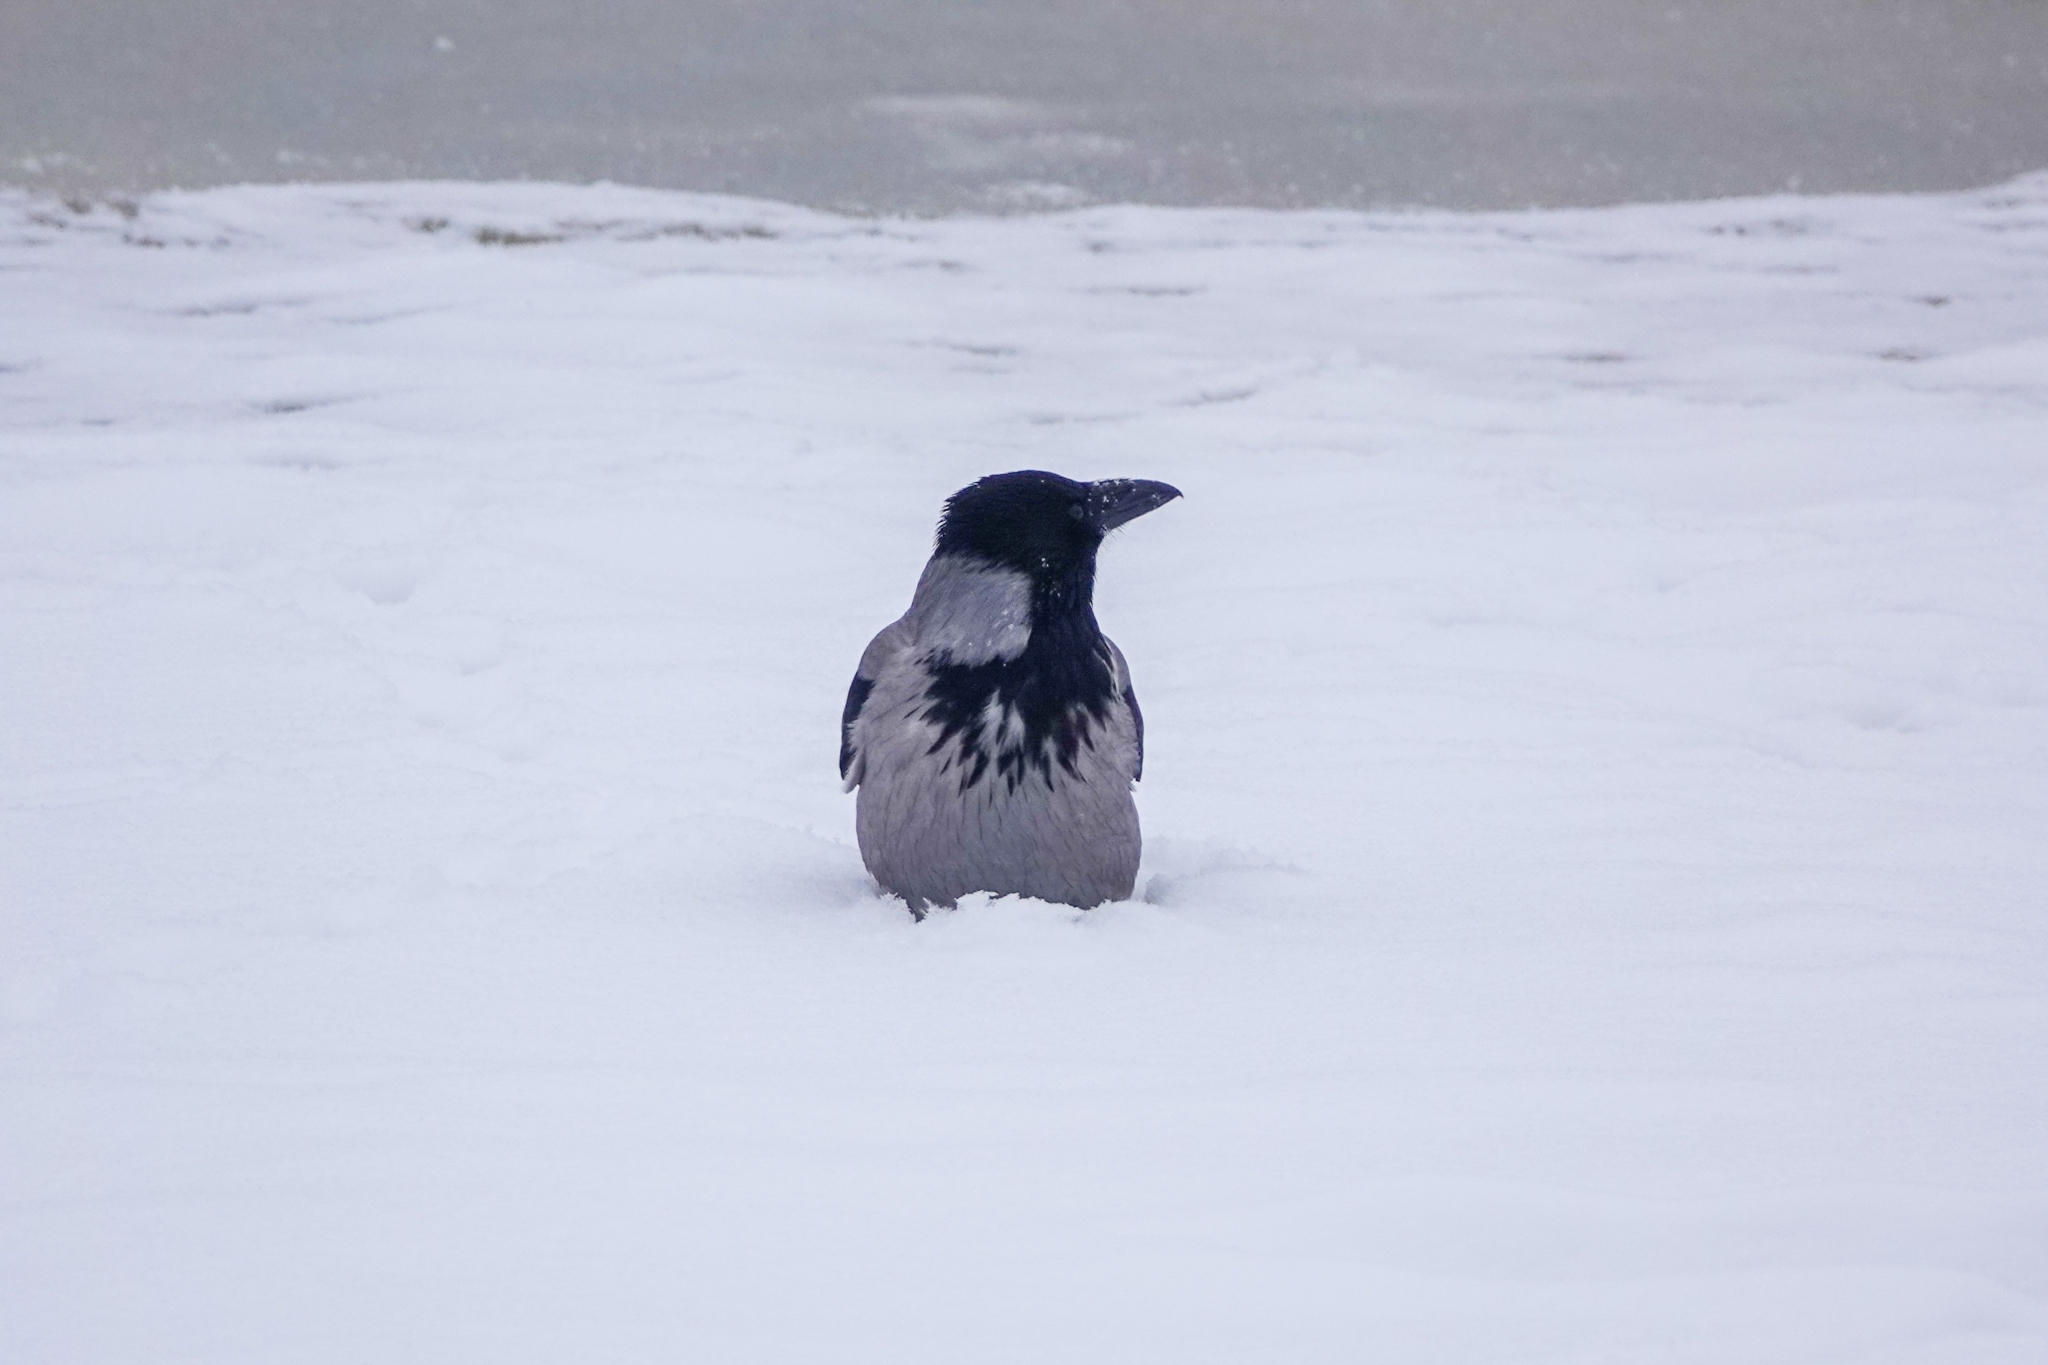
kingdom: Animalia
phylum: Chordata
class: Aves
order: Passeriformes
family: Corvidae
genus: Corvus
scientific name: Corvus cornix
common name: Hooded crow
